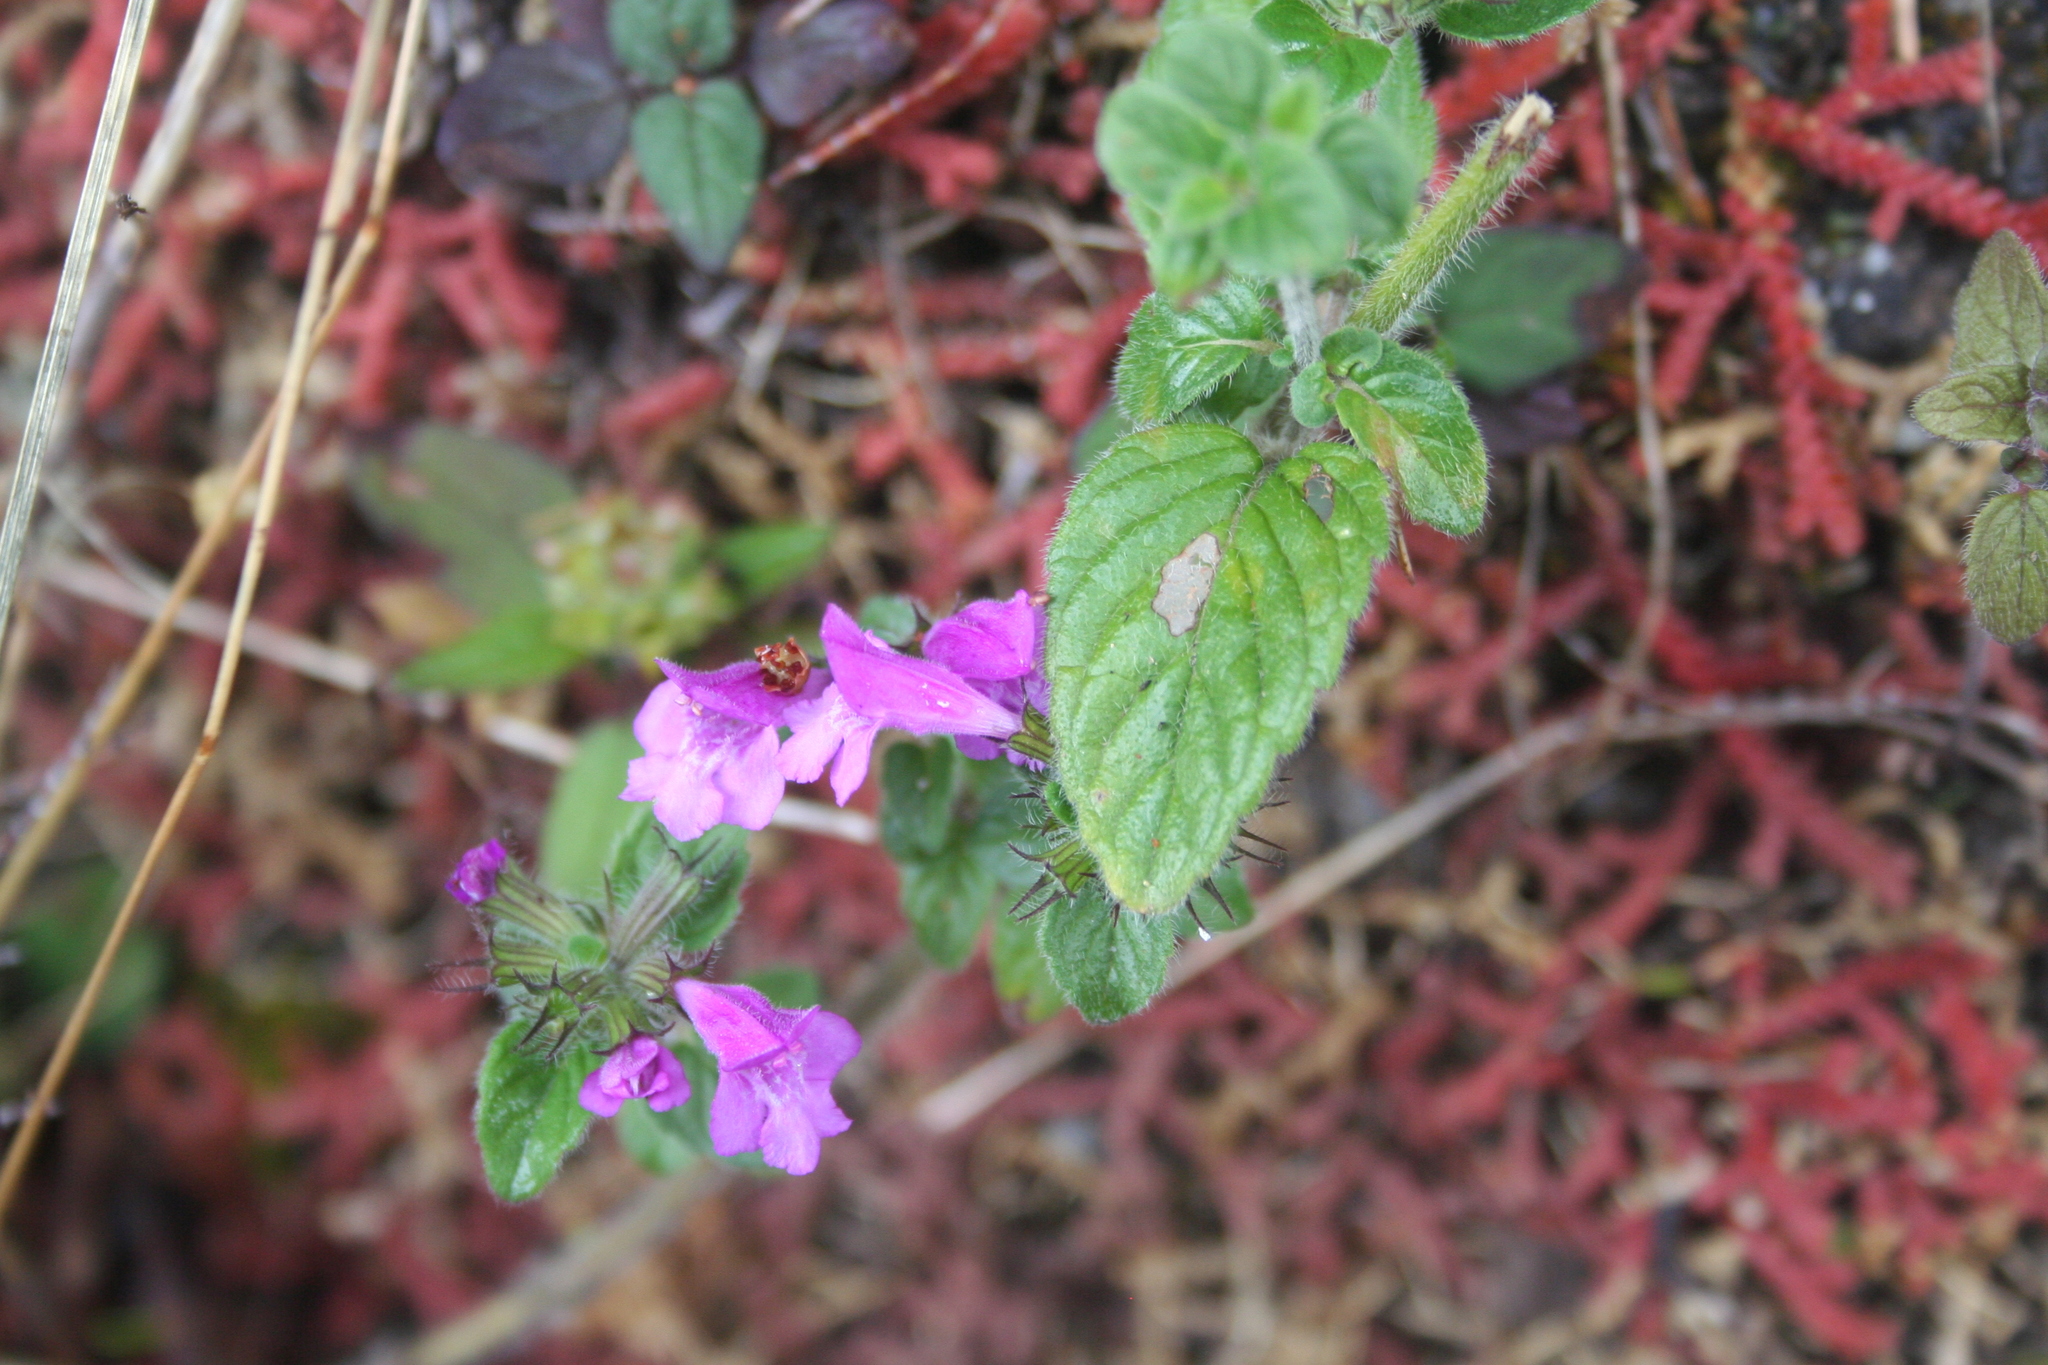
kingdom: Plantae
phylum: Tracheophyta
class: Magnoliopsida
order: Lamiales
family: Lamiaceae
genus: Clinopodium
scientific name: Clinopodium menthifolium
